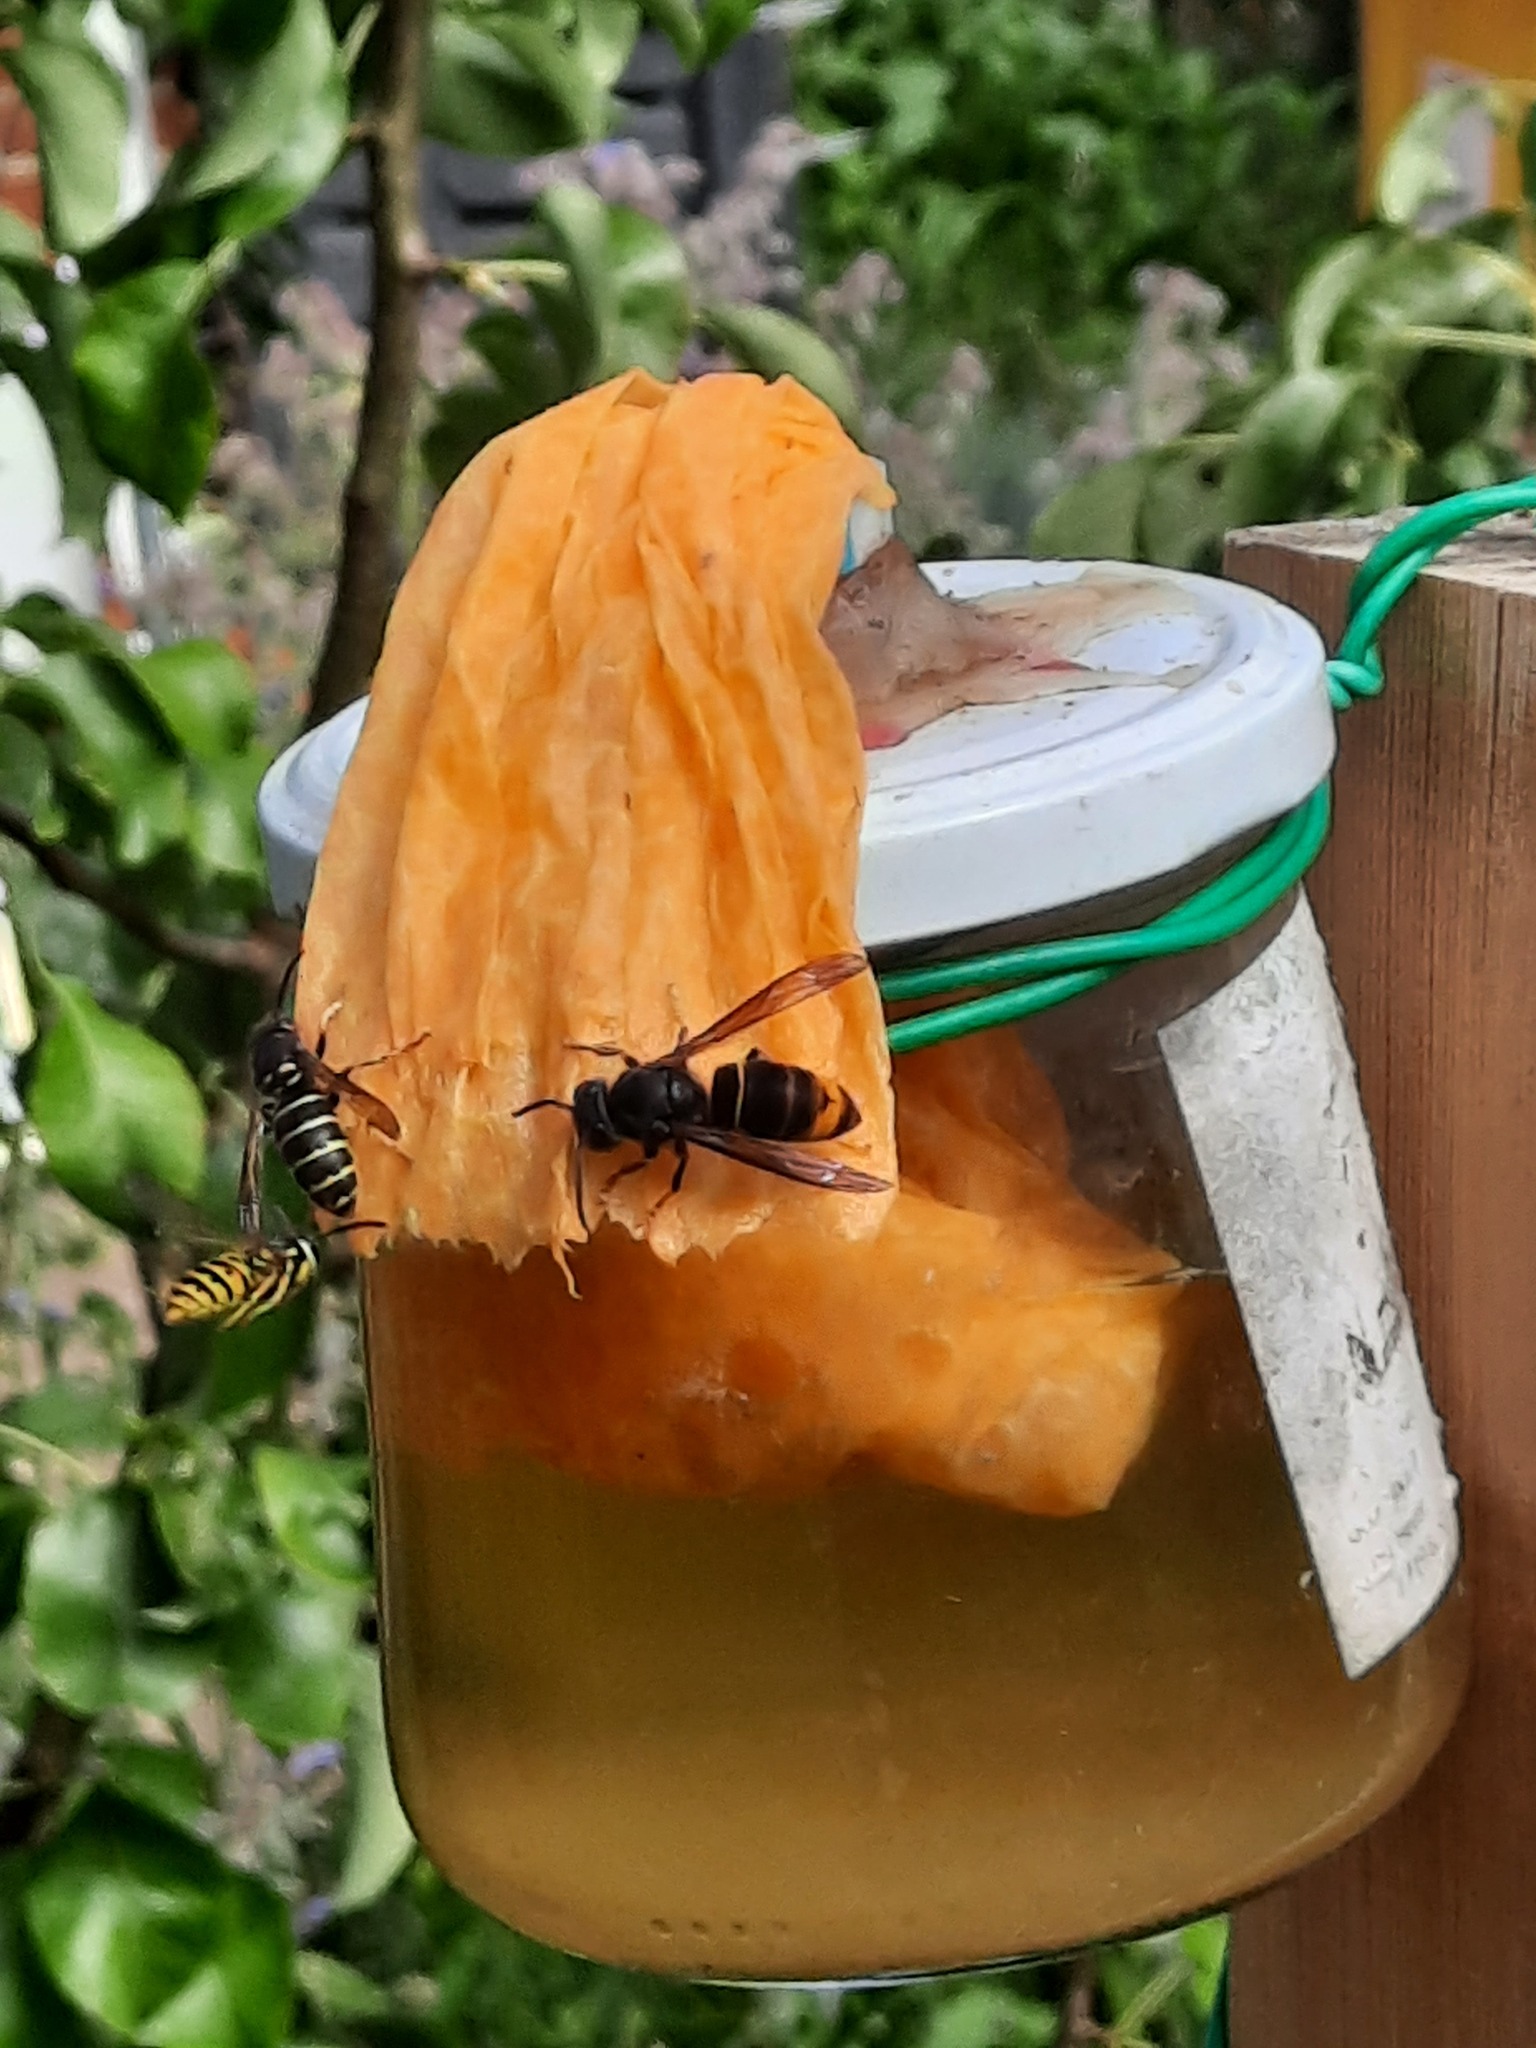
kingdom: Animalia
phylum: Arthropoda
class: Insecta
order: Hymenoptera
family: Vespidae
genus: Vespa
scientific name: Vespa velutina
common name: Asian hornet
